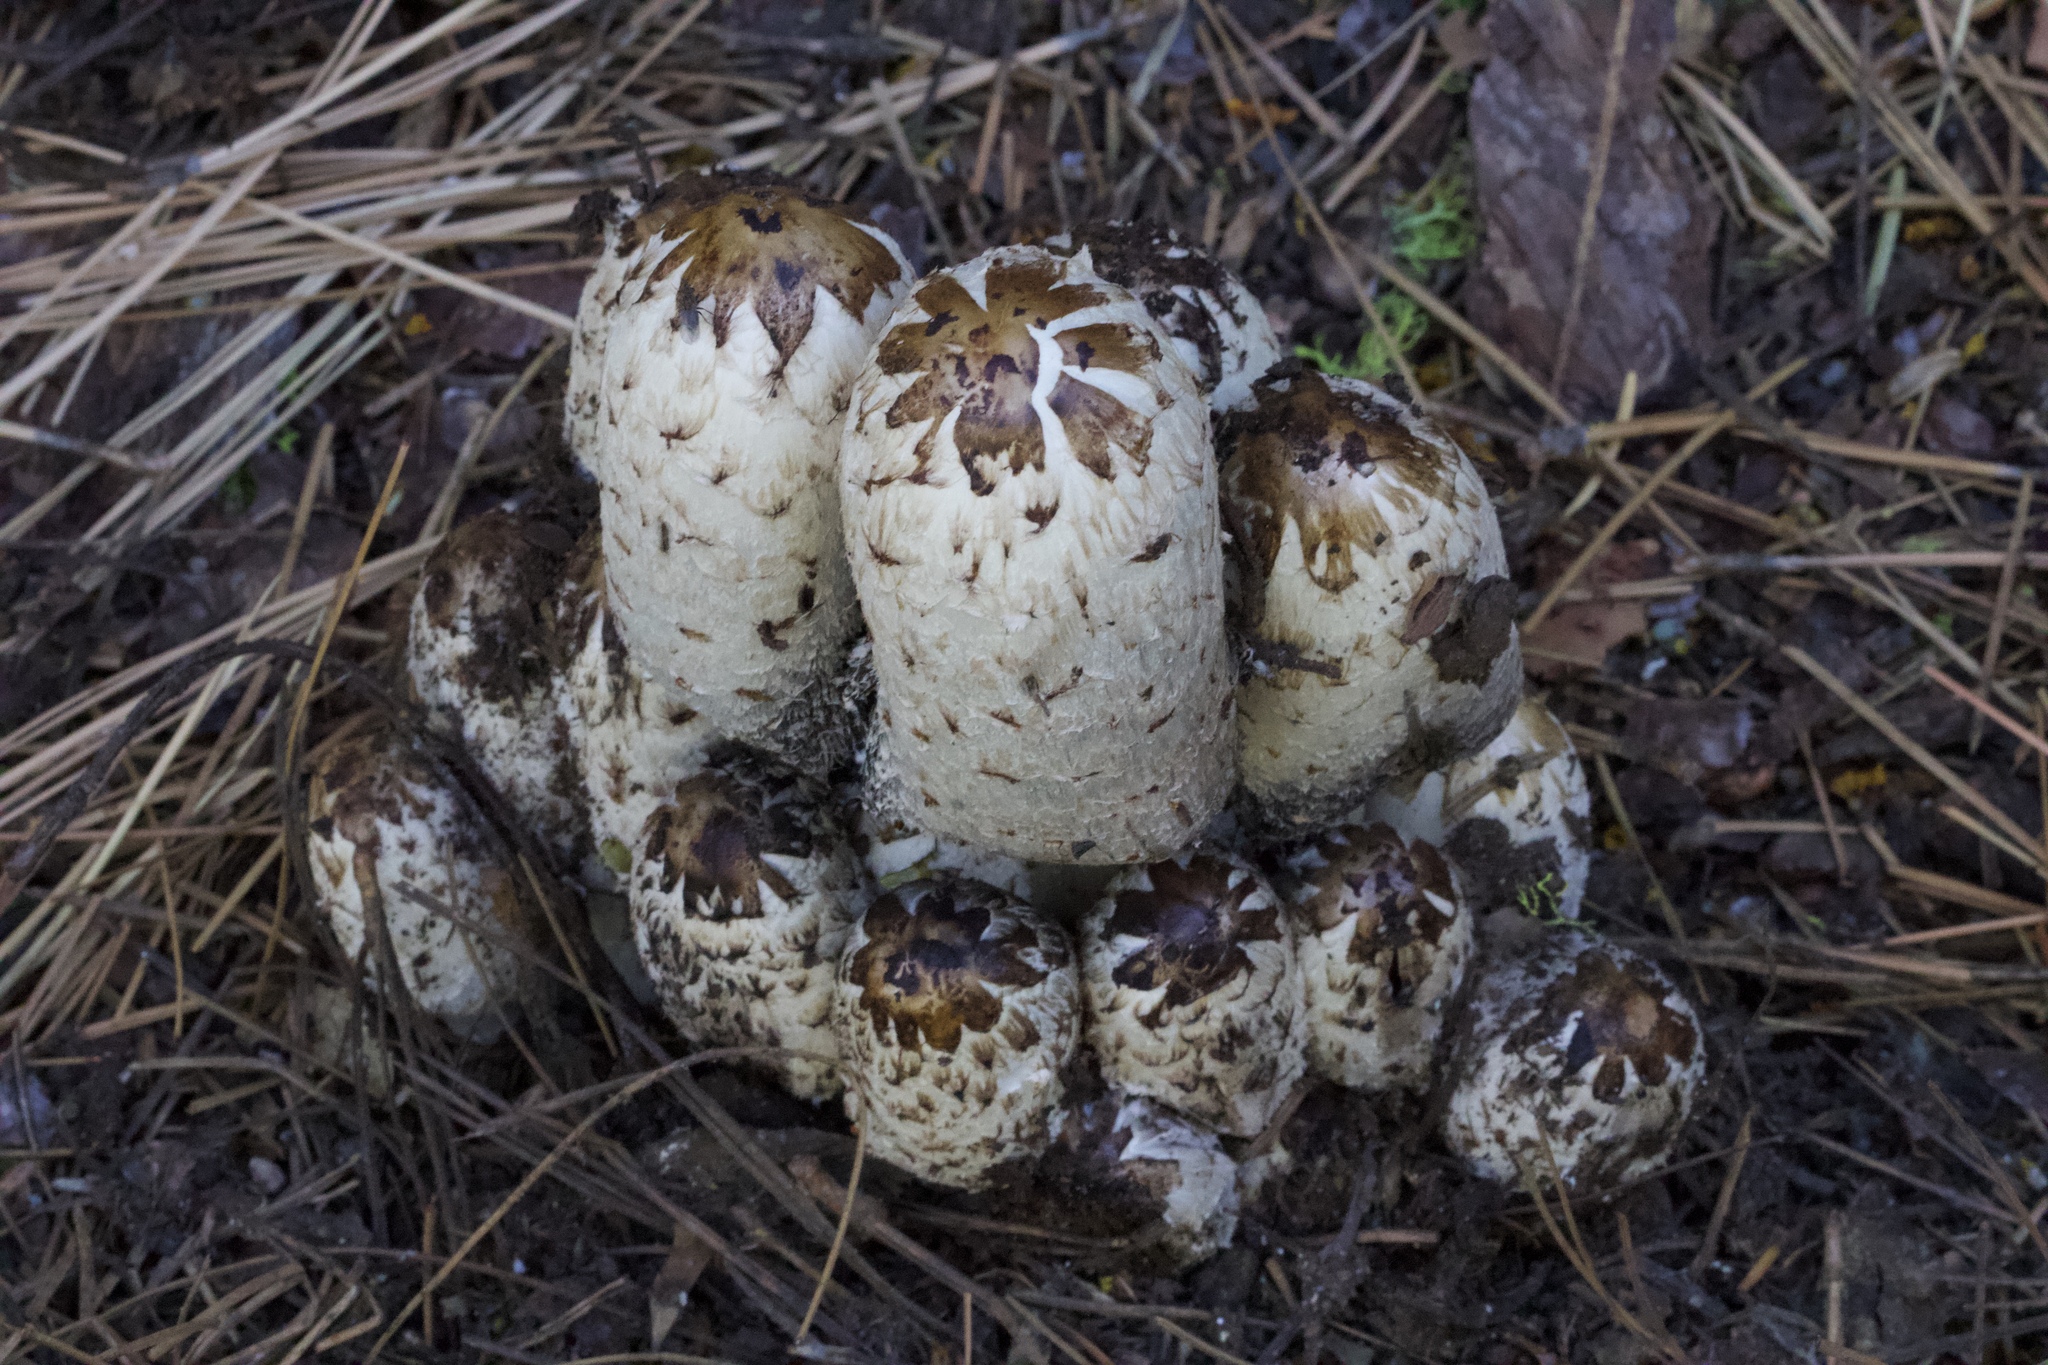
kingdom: Fungi
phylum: Basidiomycota
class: Agaricomycetes
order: Agaricales
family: Agaricaceae
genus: Coprinus
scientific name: Coprinus comatus
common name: Lawyer's wig
